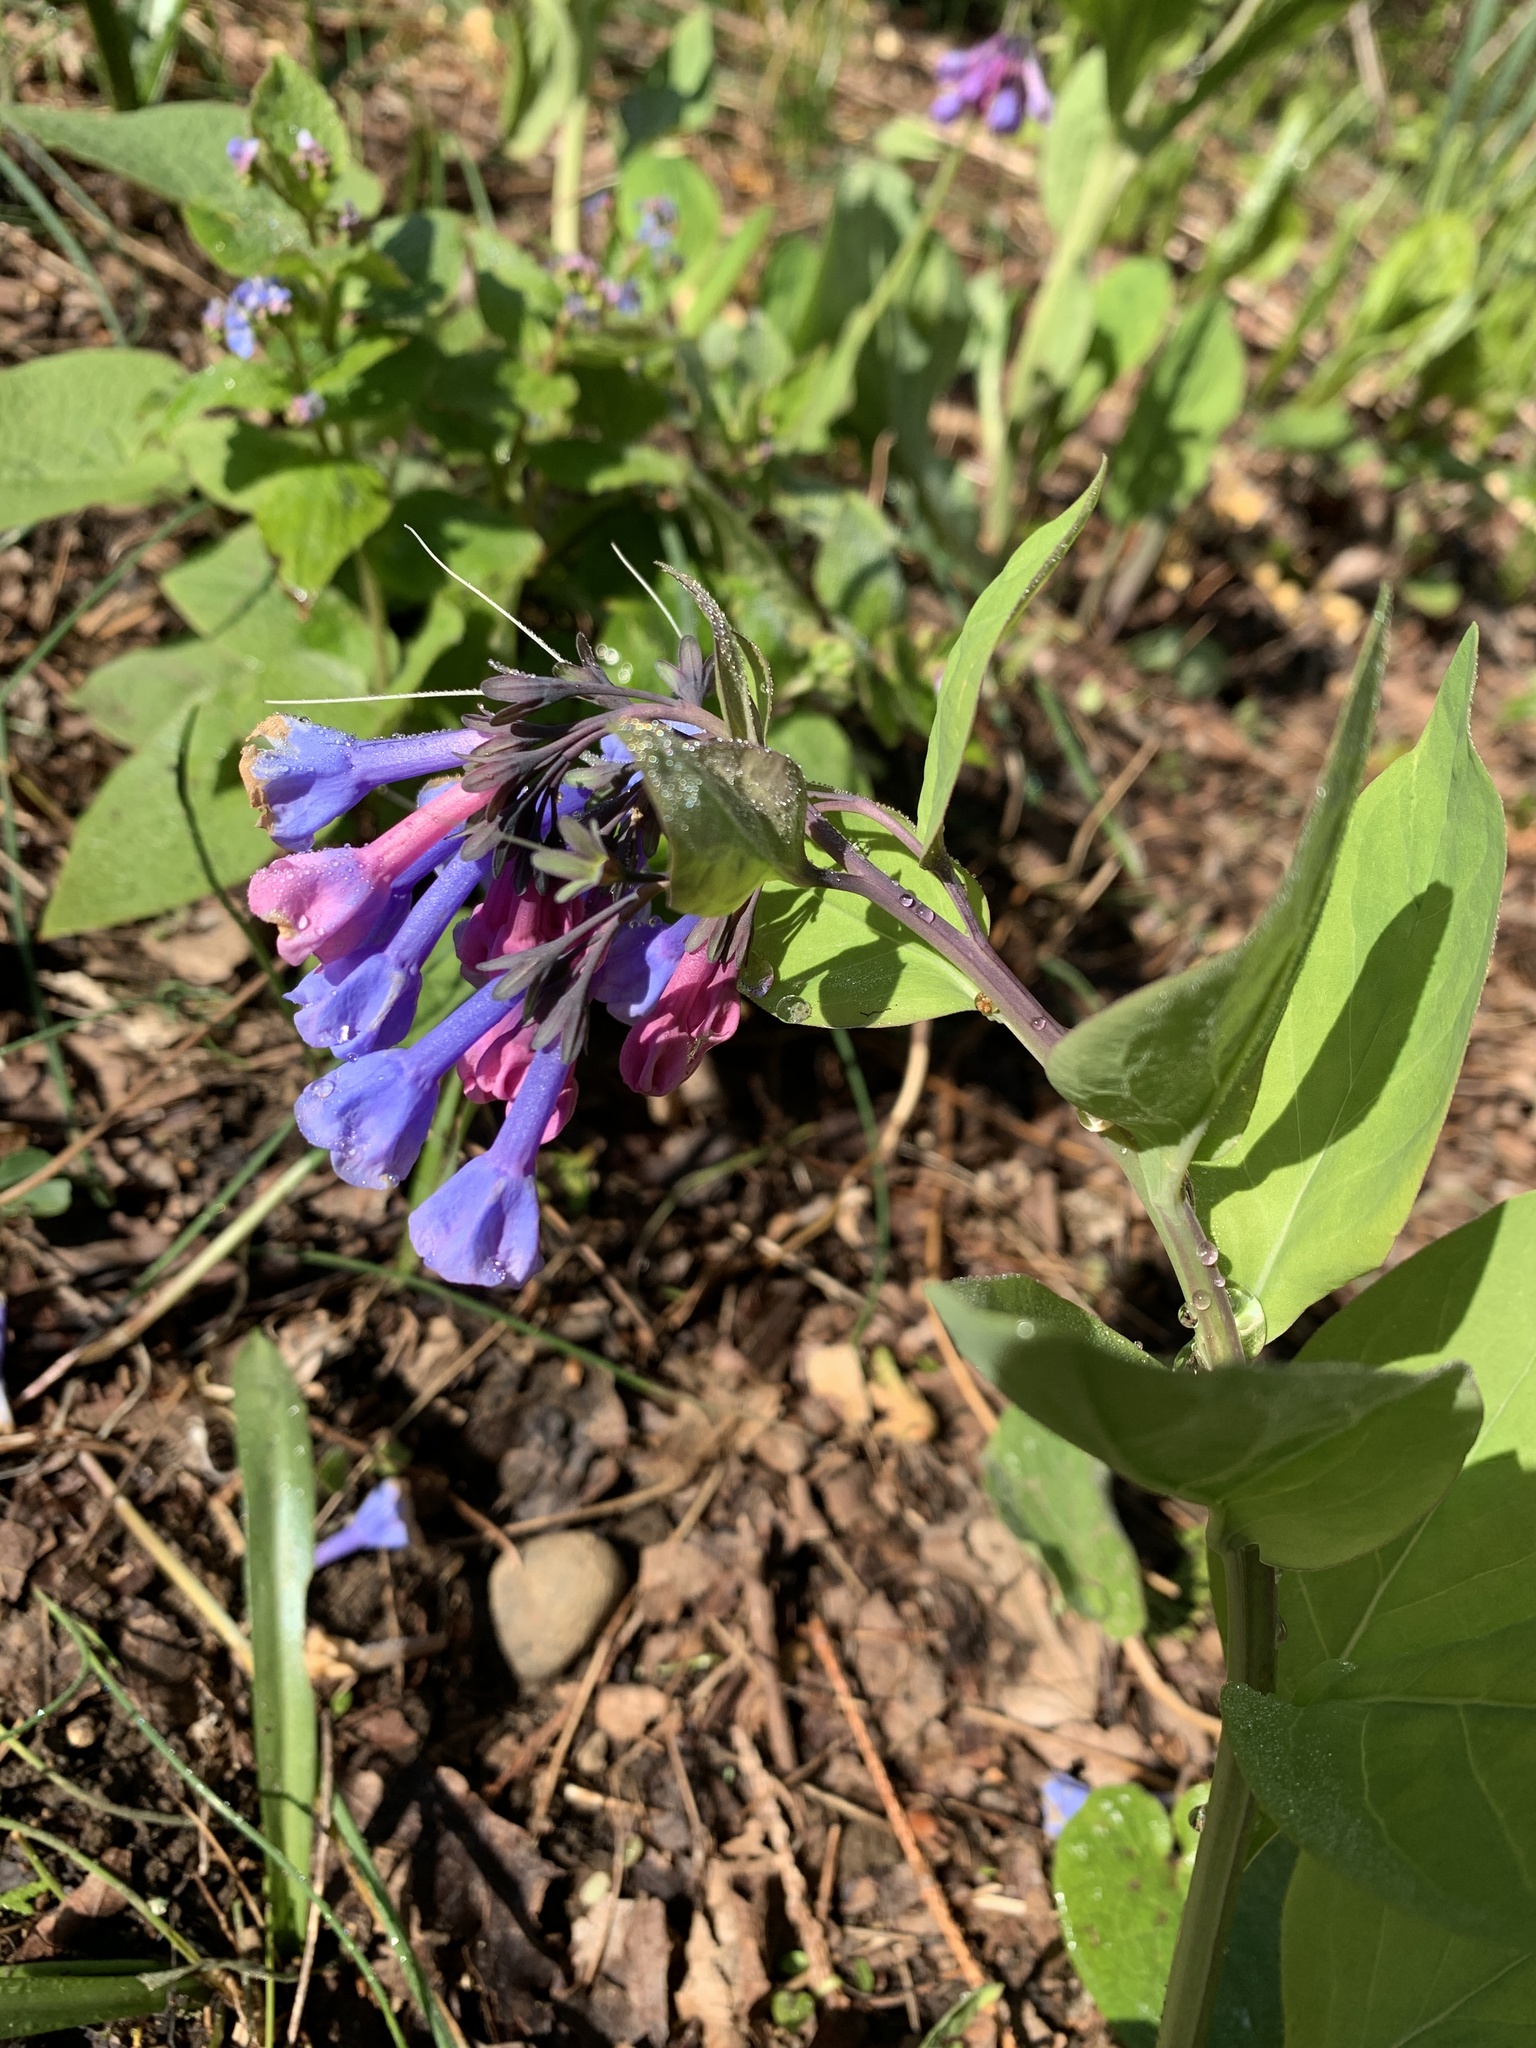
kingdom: Plantae
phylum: Tracheophyta
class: Magnoliopsida
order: Boraginales
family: Boraginaceae
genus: Mertensia
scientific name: Mertensia virginica
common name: Virginia bluebells
